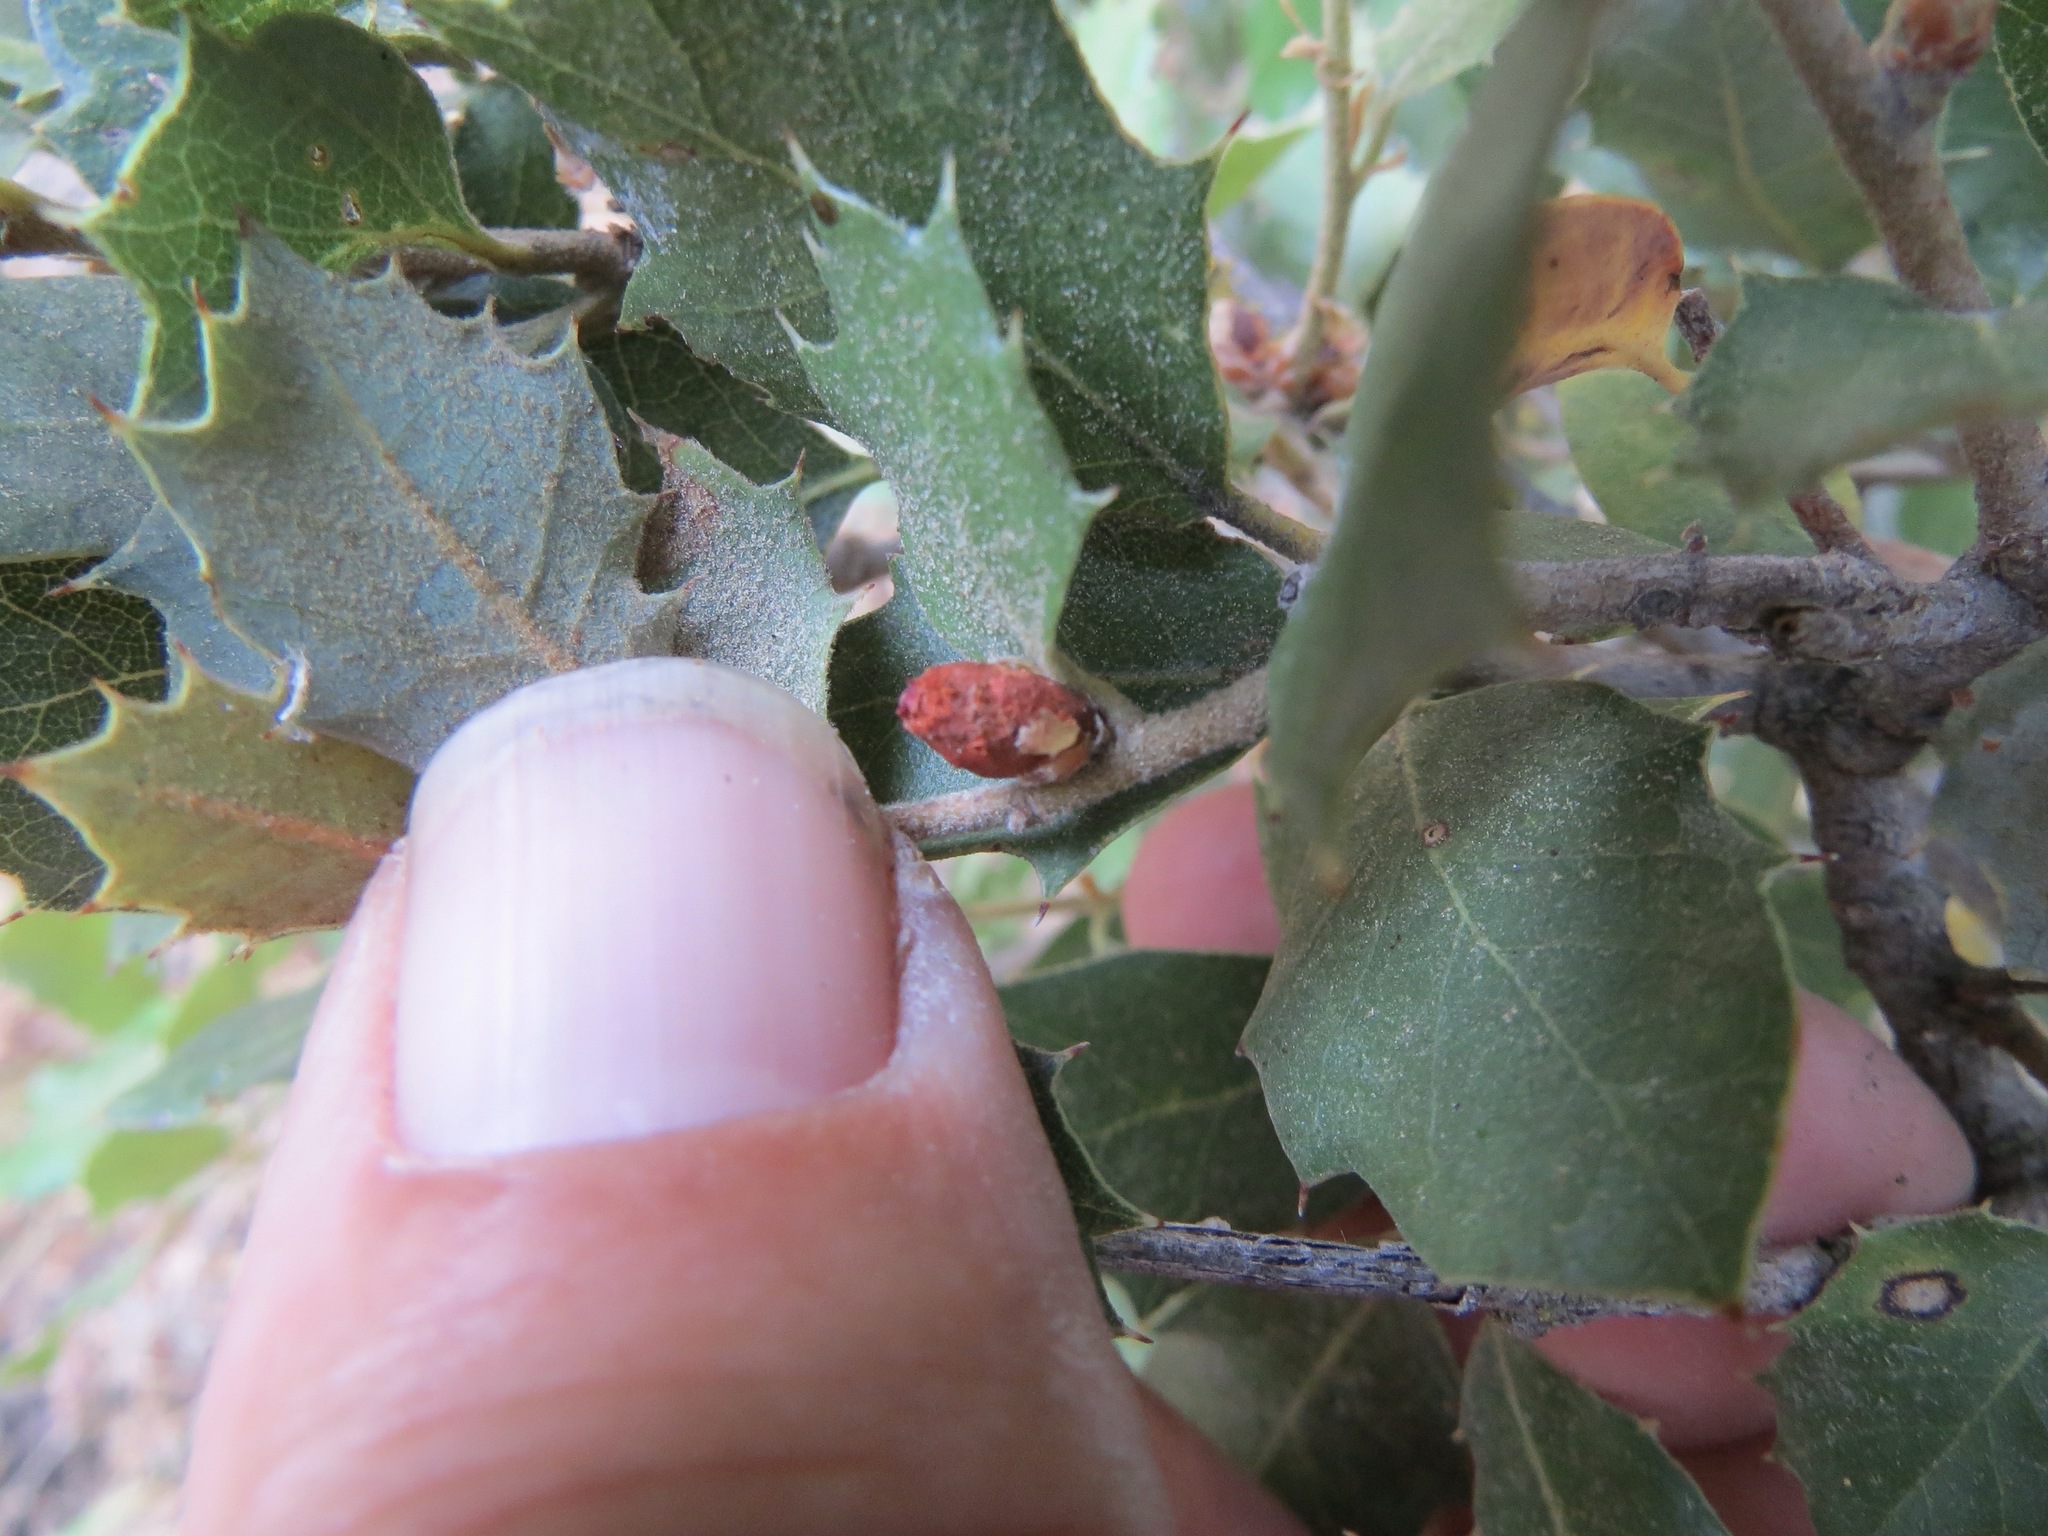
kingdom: Animalia
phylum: Arthropoda
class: Insecta
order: Hymenoptera
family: Cynipidae
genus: Andricus
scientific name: Andricus
